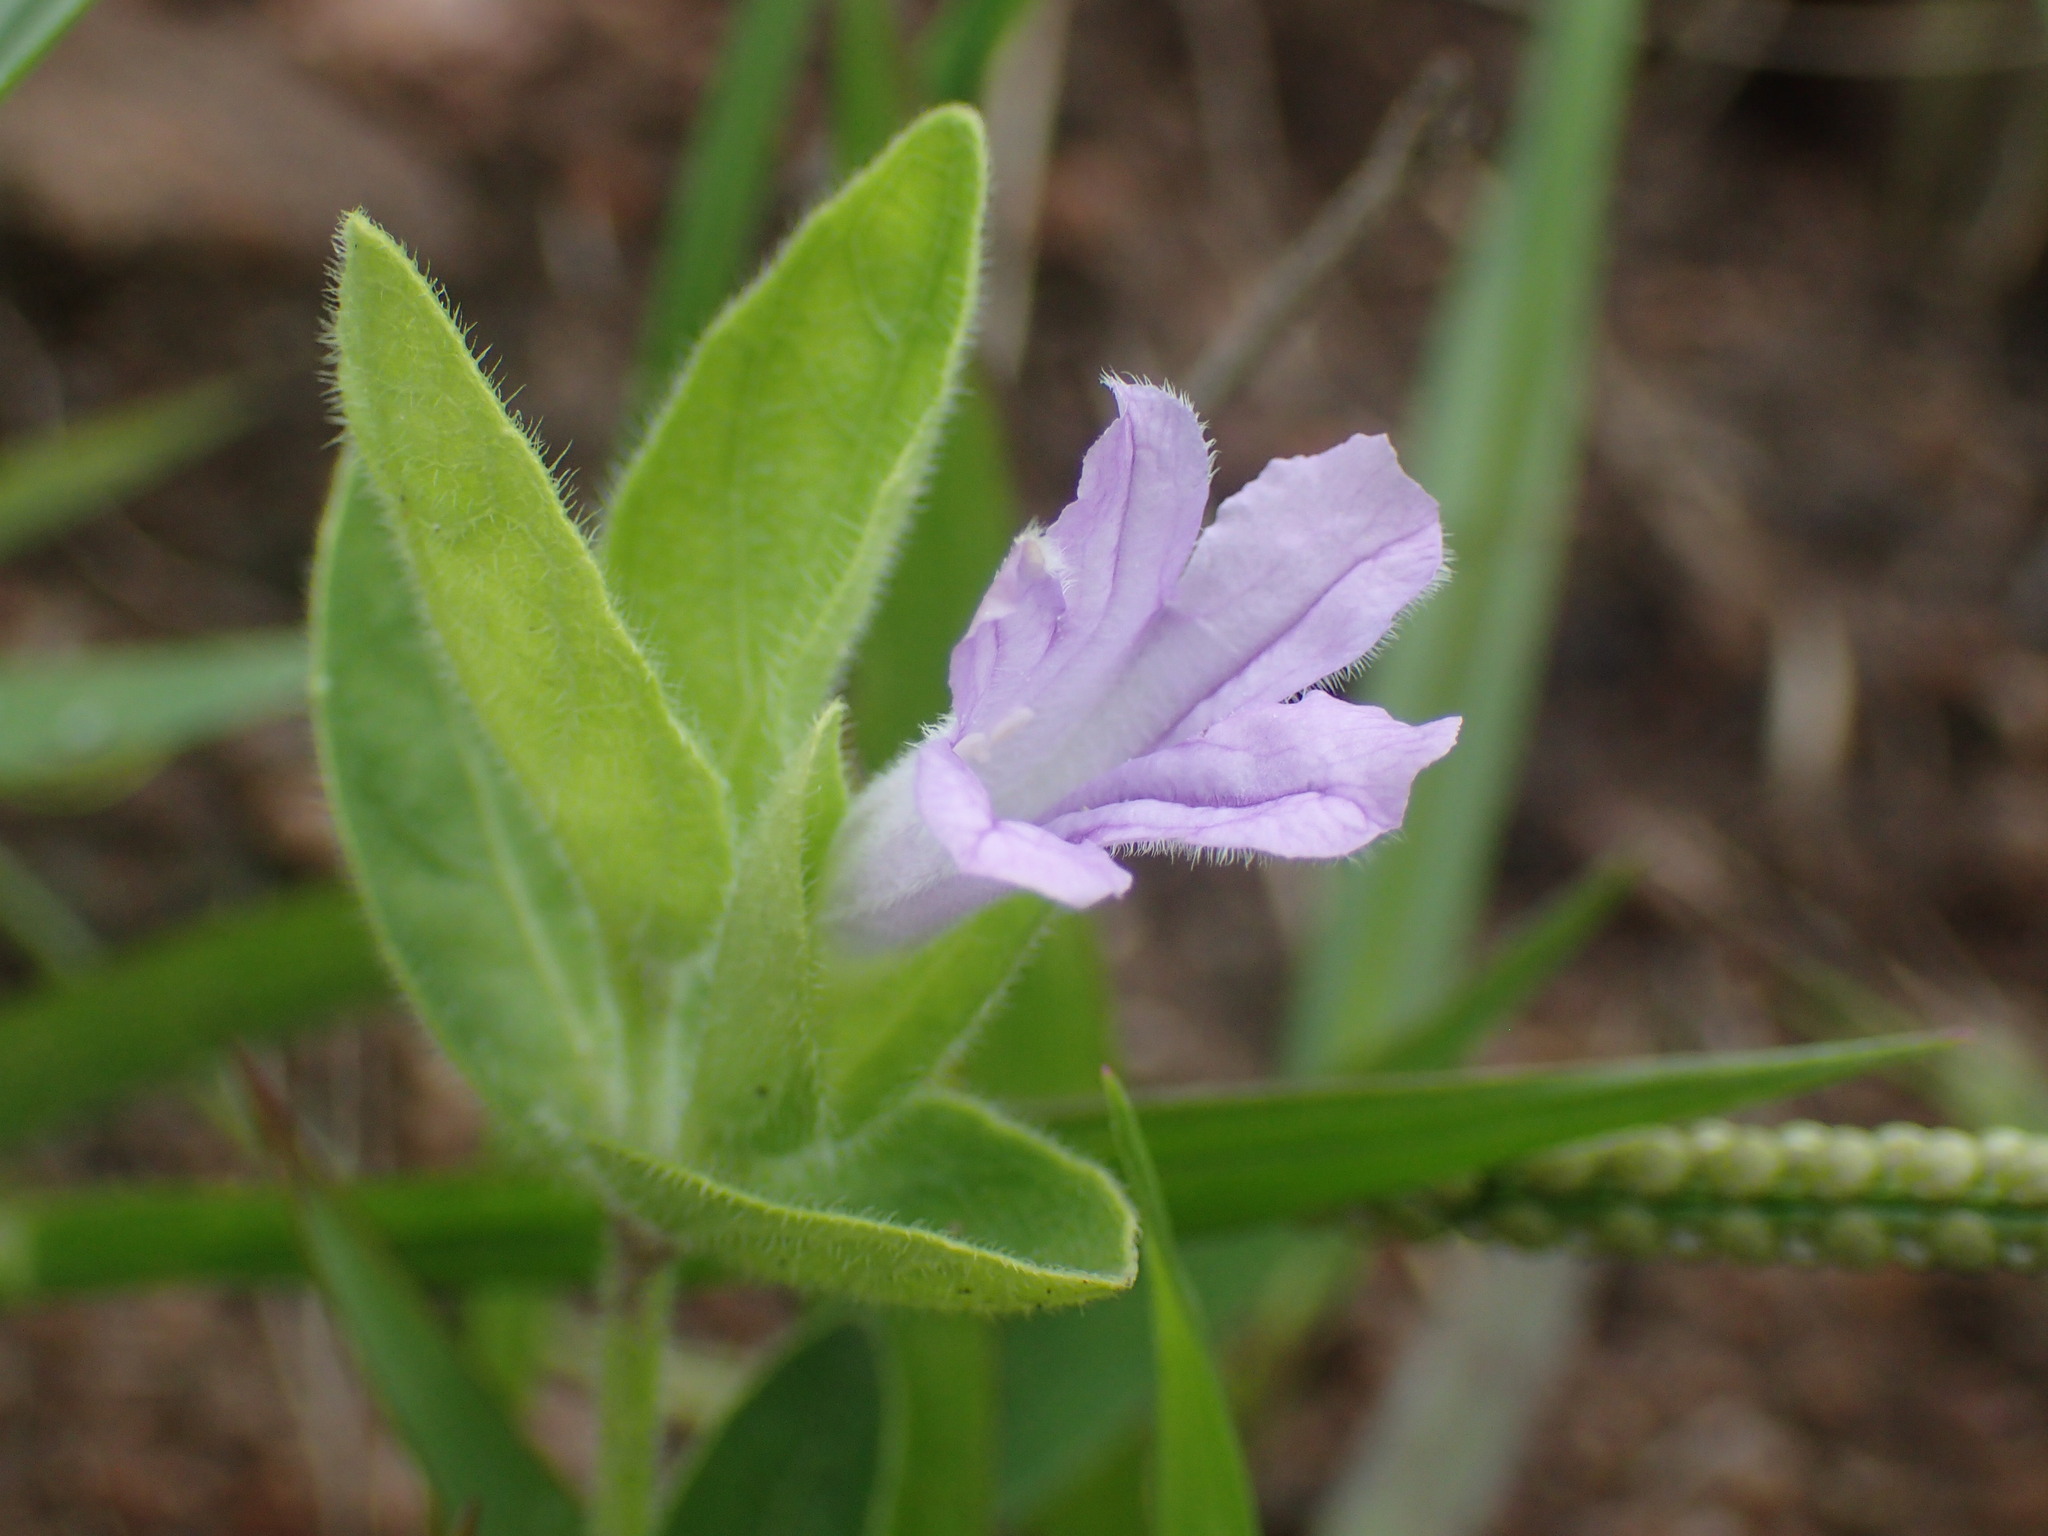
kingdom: Plantae
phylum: Tracheophyta
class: Magnoliopsida
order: Lamiales
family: Acanthaceae
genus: Ruellia
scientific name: Ruellia cordata
